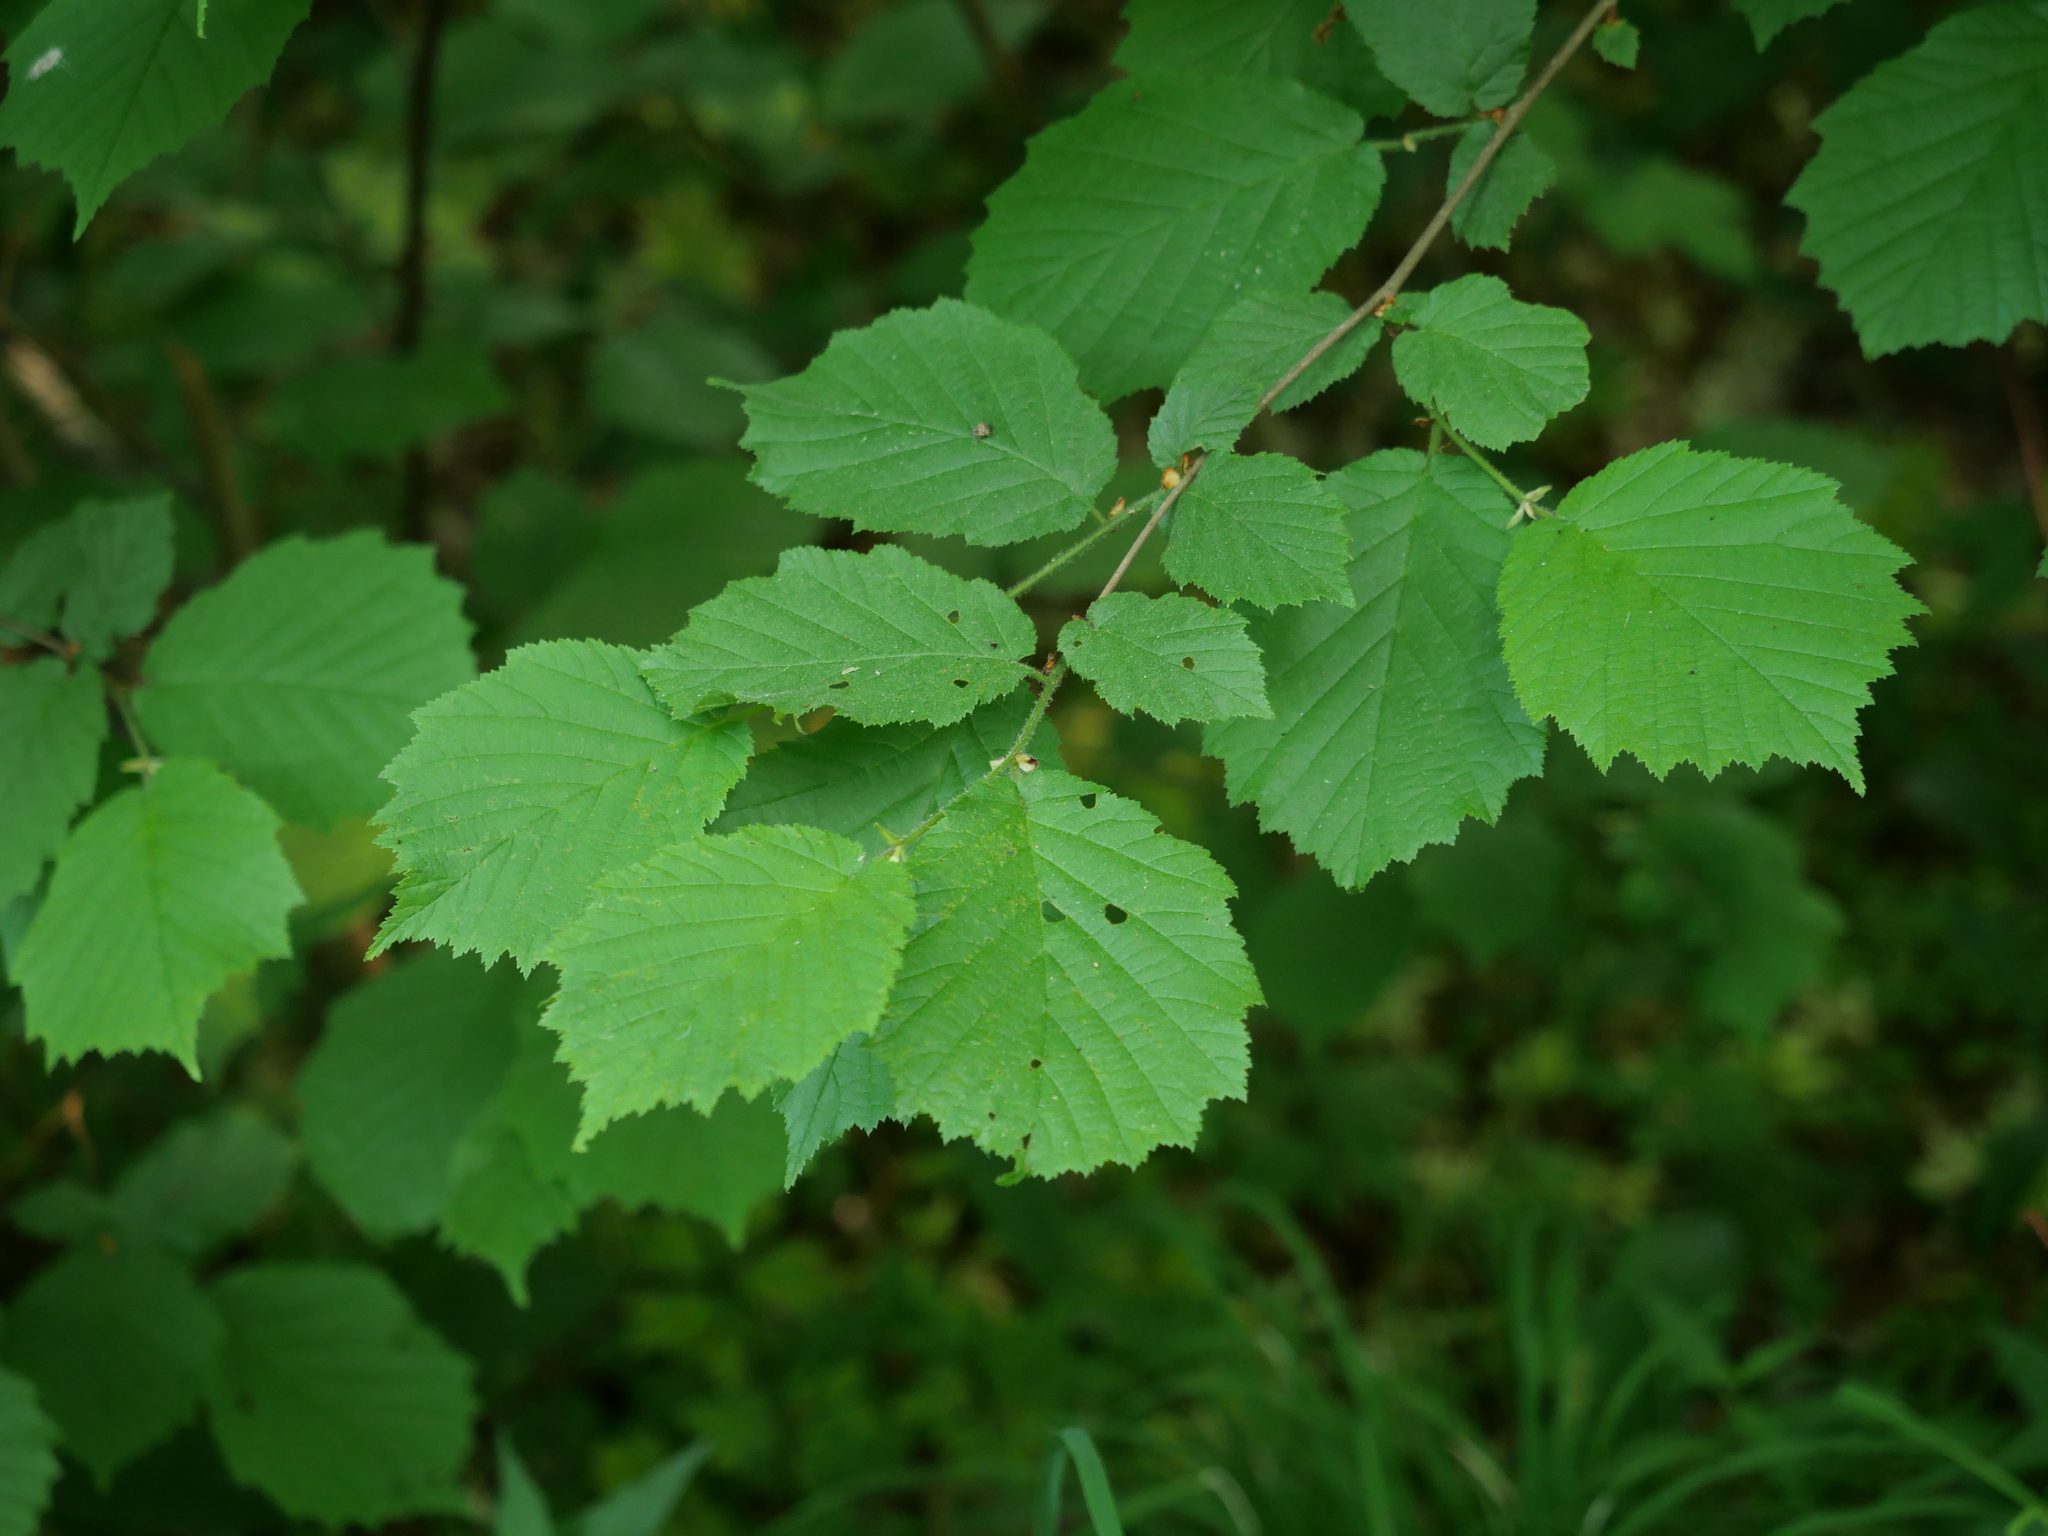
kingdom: Plantae
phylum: Tracheophyta
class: Magnoliopsida
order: Fagales
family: Betulaceae
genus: Corylus
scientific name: Corylus avellana
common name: European hazel
